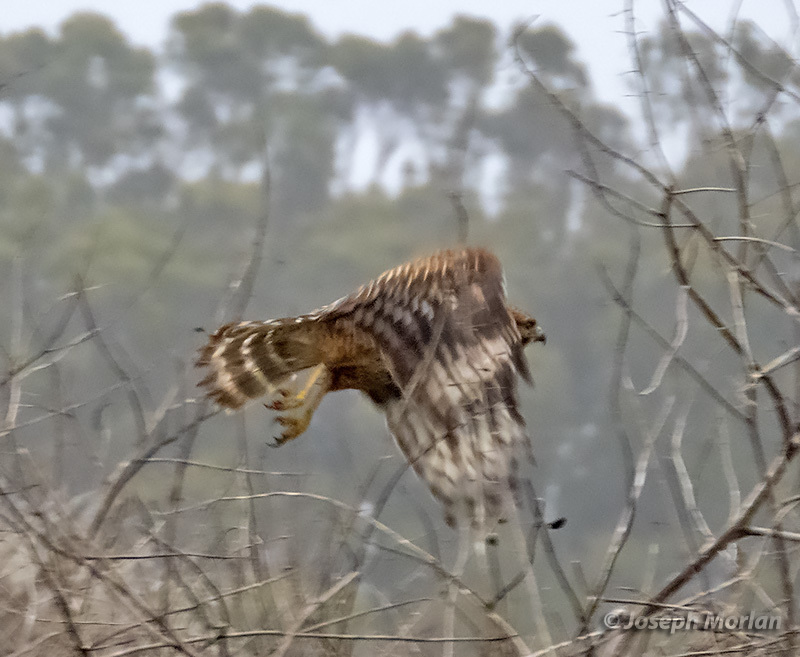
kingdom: Animalia
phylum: Chordata
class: Aves
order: Accipitriformes
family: Accipitridae
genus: Buteo
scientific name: Buteo lineatus
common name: Red-shouldered hawk
